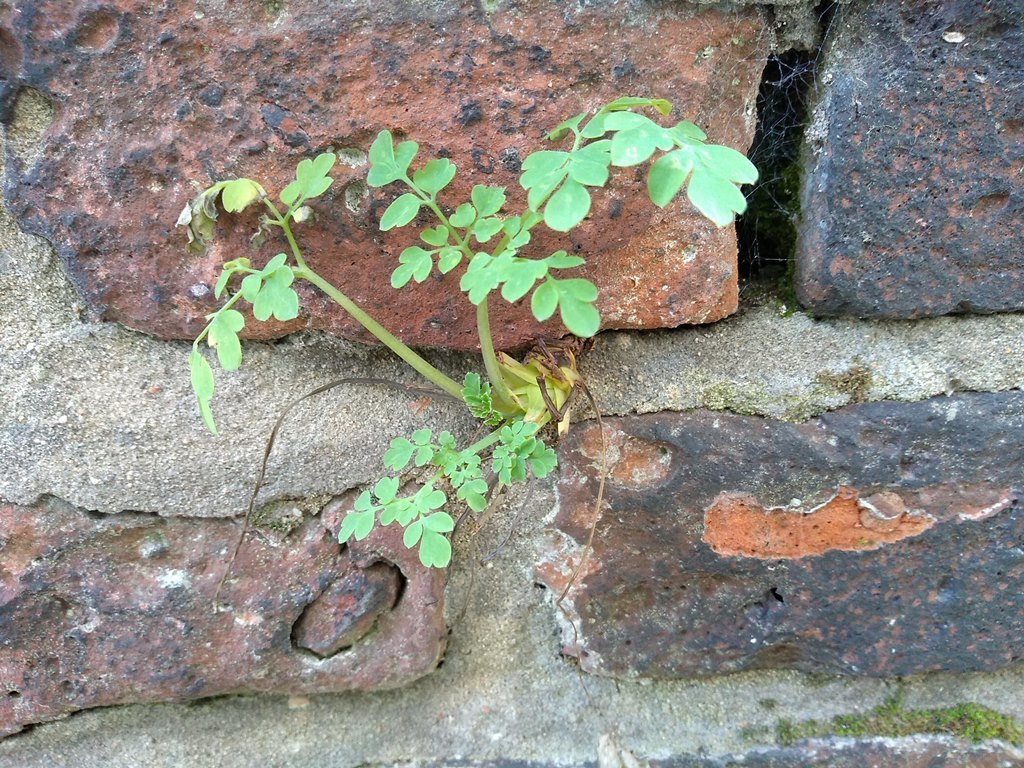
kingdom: Plantae
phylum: Tracheophyta
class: Magnoliopsida
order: Ranunculales
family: Papaveraceae
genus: Pseudofumaria
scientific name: Pseudofumaria lutea
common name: Yellow corydalis
